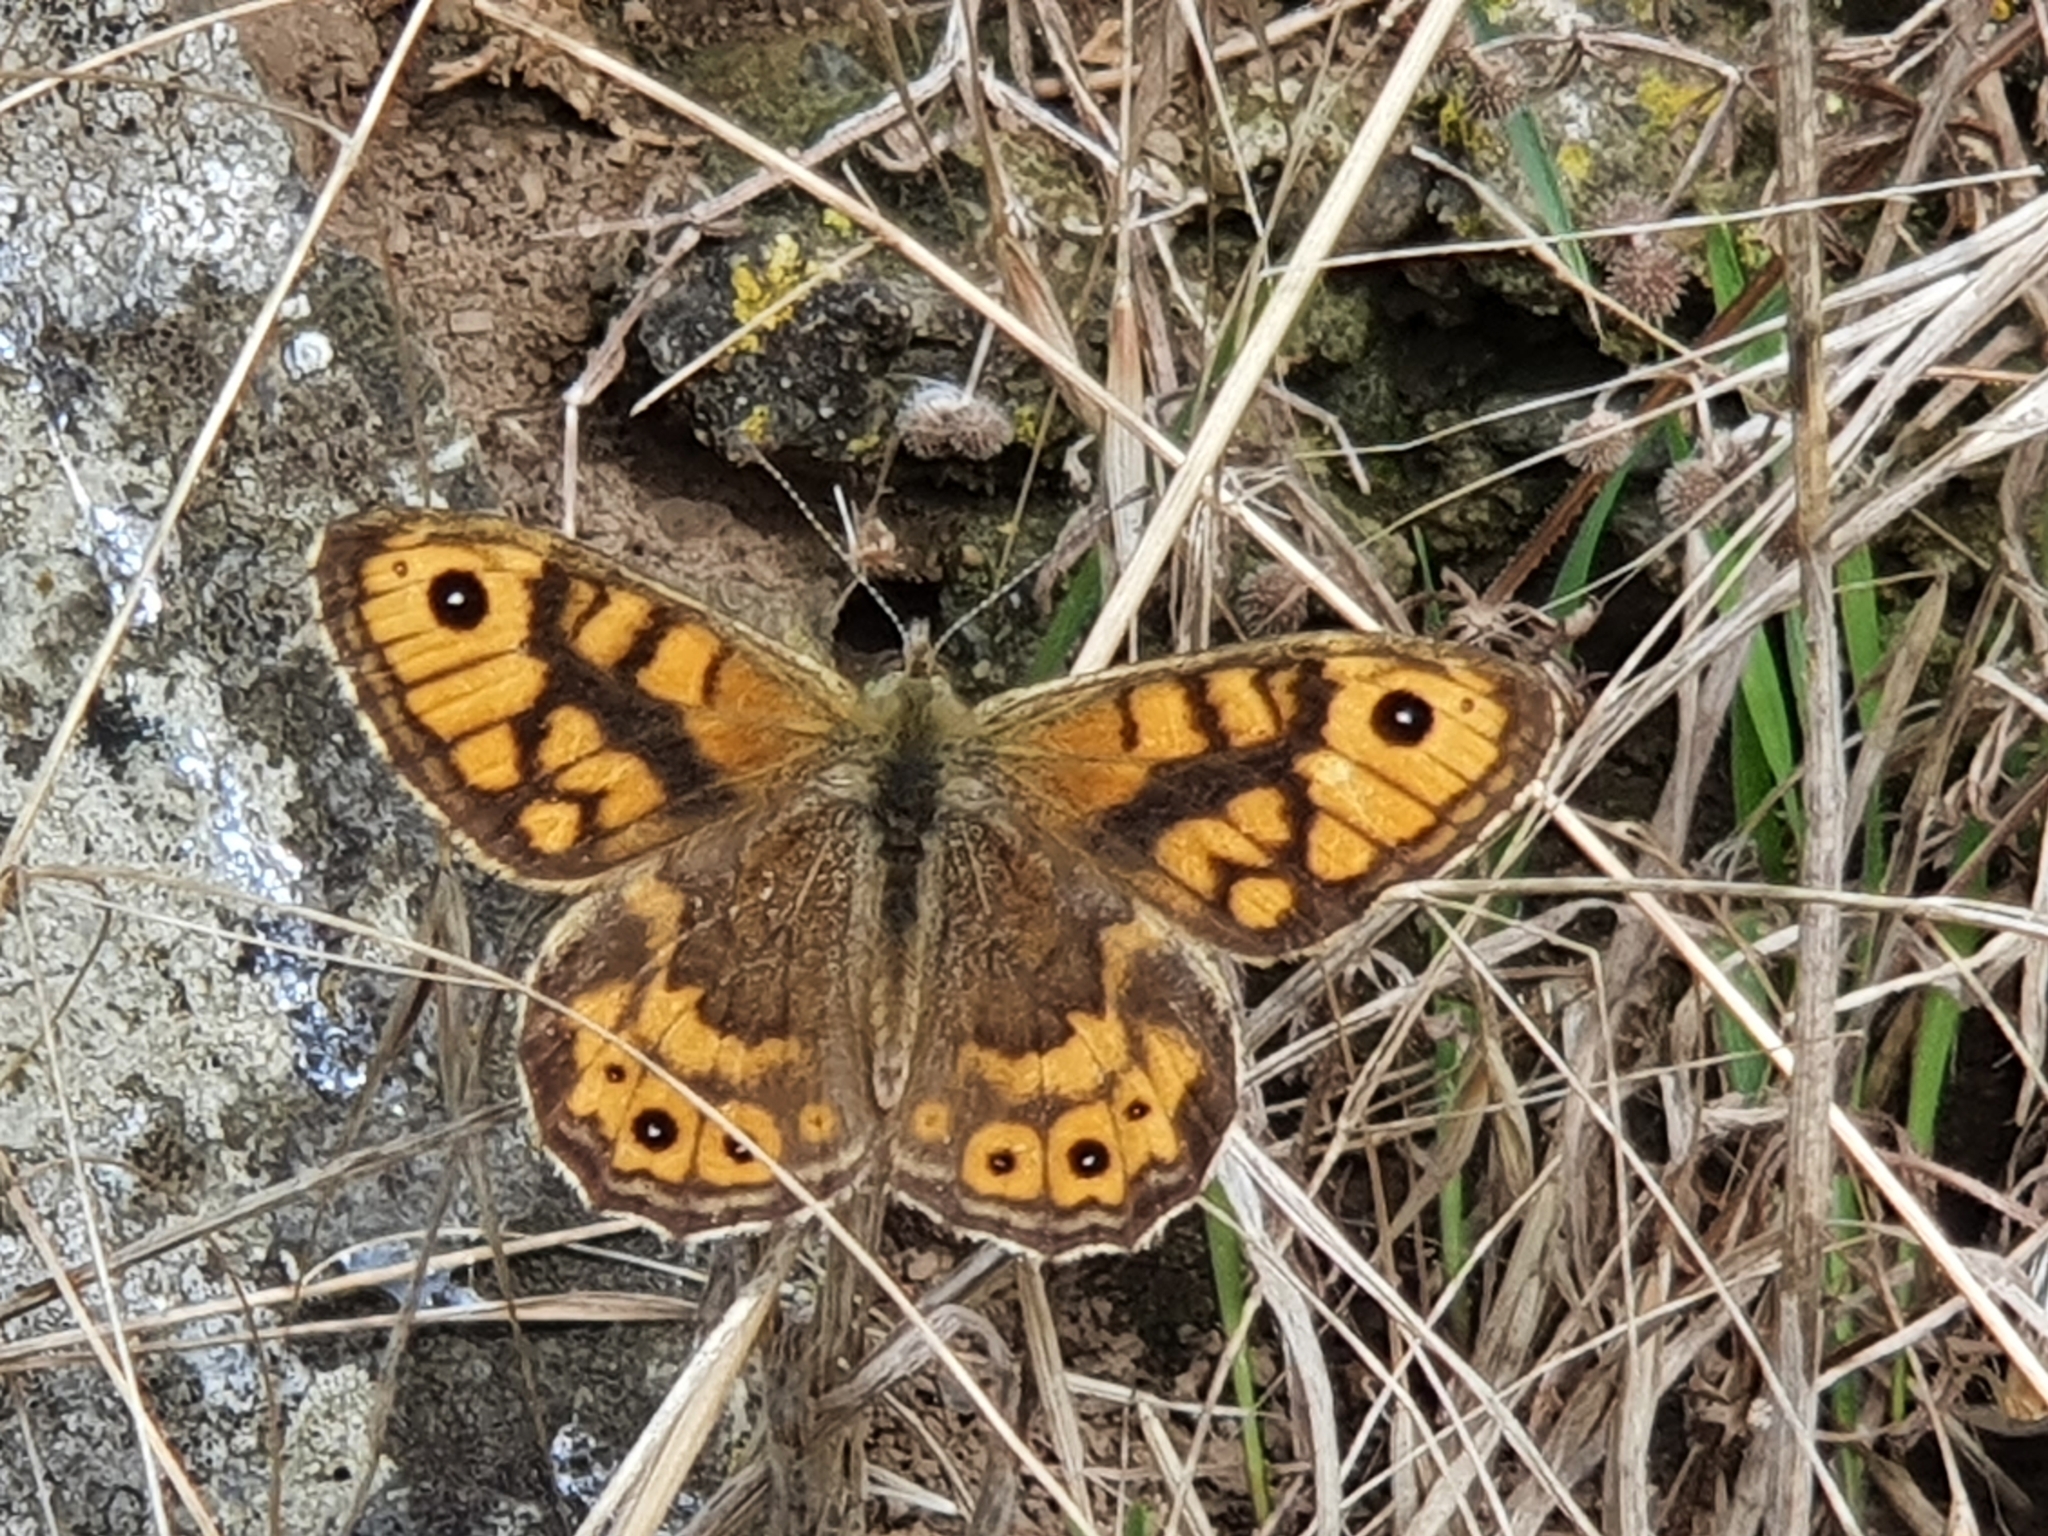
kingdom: Animalia
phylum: Arthropoda
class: Insecta
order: Lepidoptera
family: Nymphalidae
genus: Pararge
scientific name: Pararge Lasiommata megera
